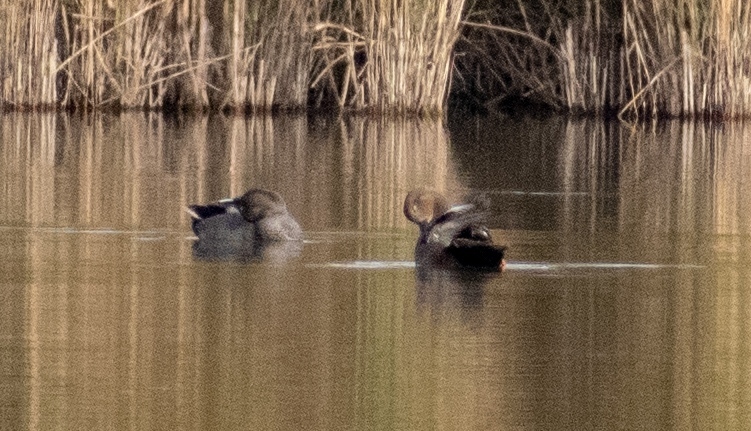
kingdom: Animalia
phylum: Chordata
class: Aves
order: Anseriformes
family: Anatidae
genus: Mareca
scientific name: Mareca strepera
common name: Gadwall
